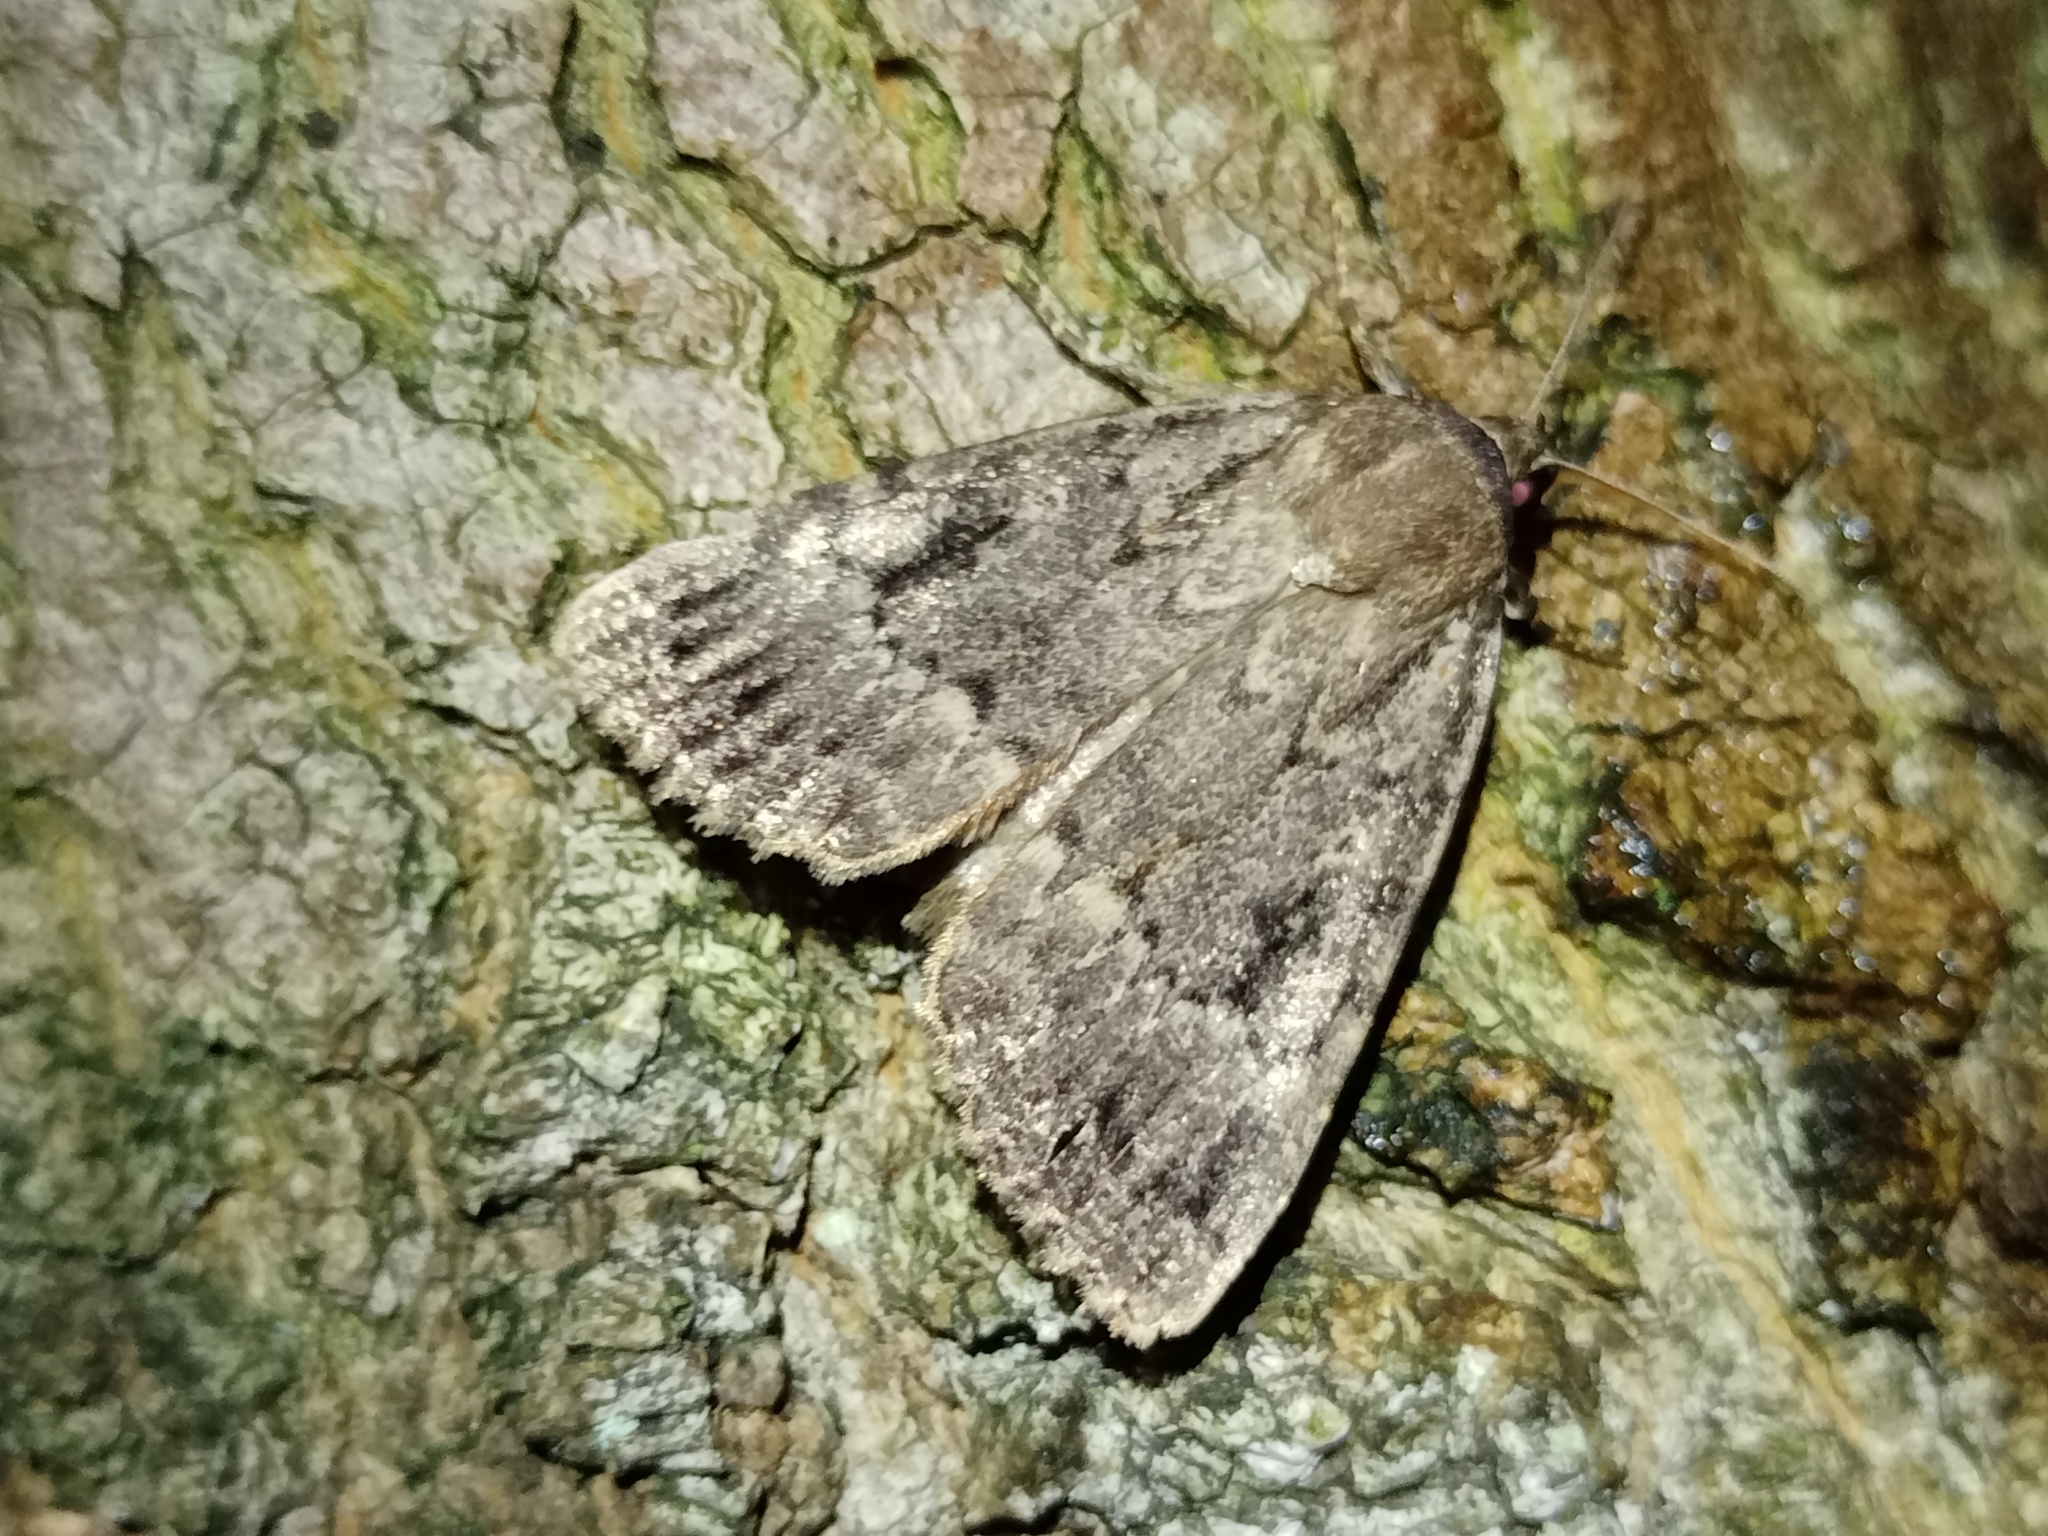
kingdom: Animalia
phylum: Arthropoda
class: Insecta
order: Lepidoptera
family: Noctuidae
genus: Amphipyra
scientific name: Amphipyra pyramidea
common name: Copper underwing
